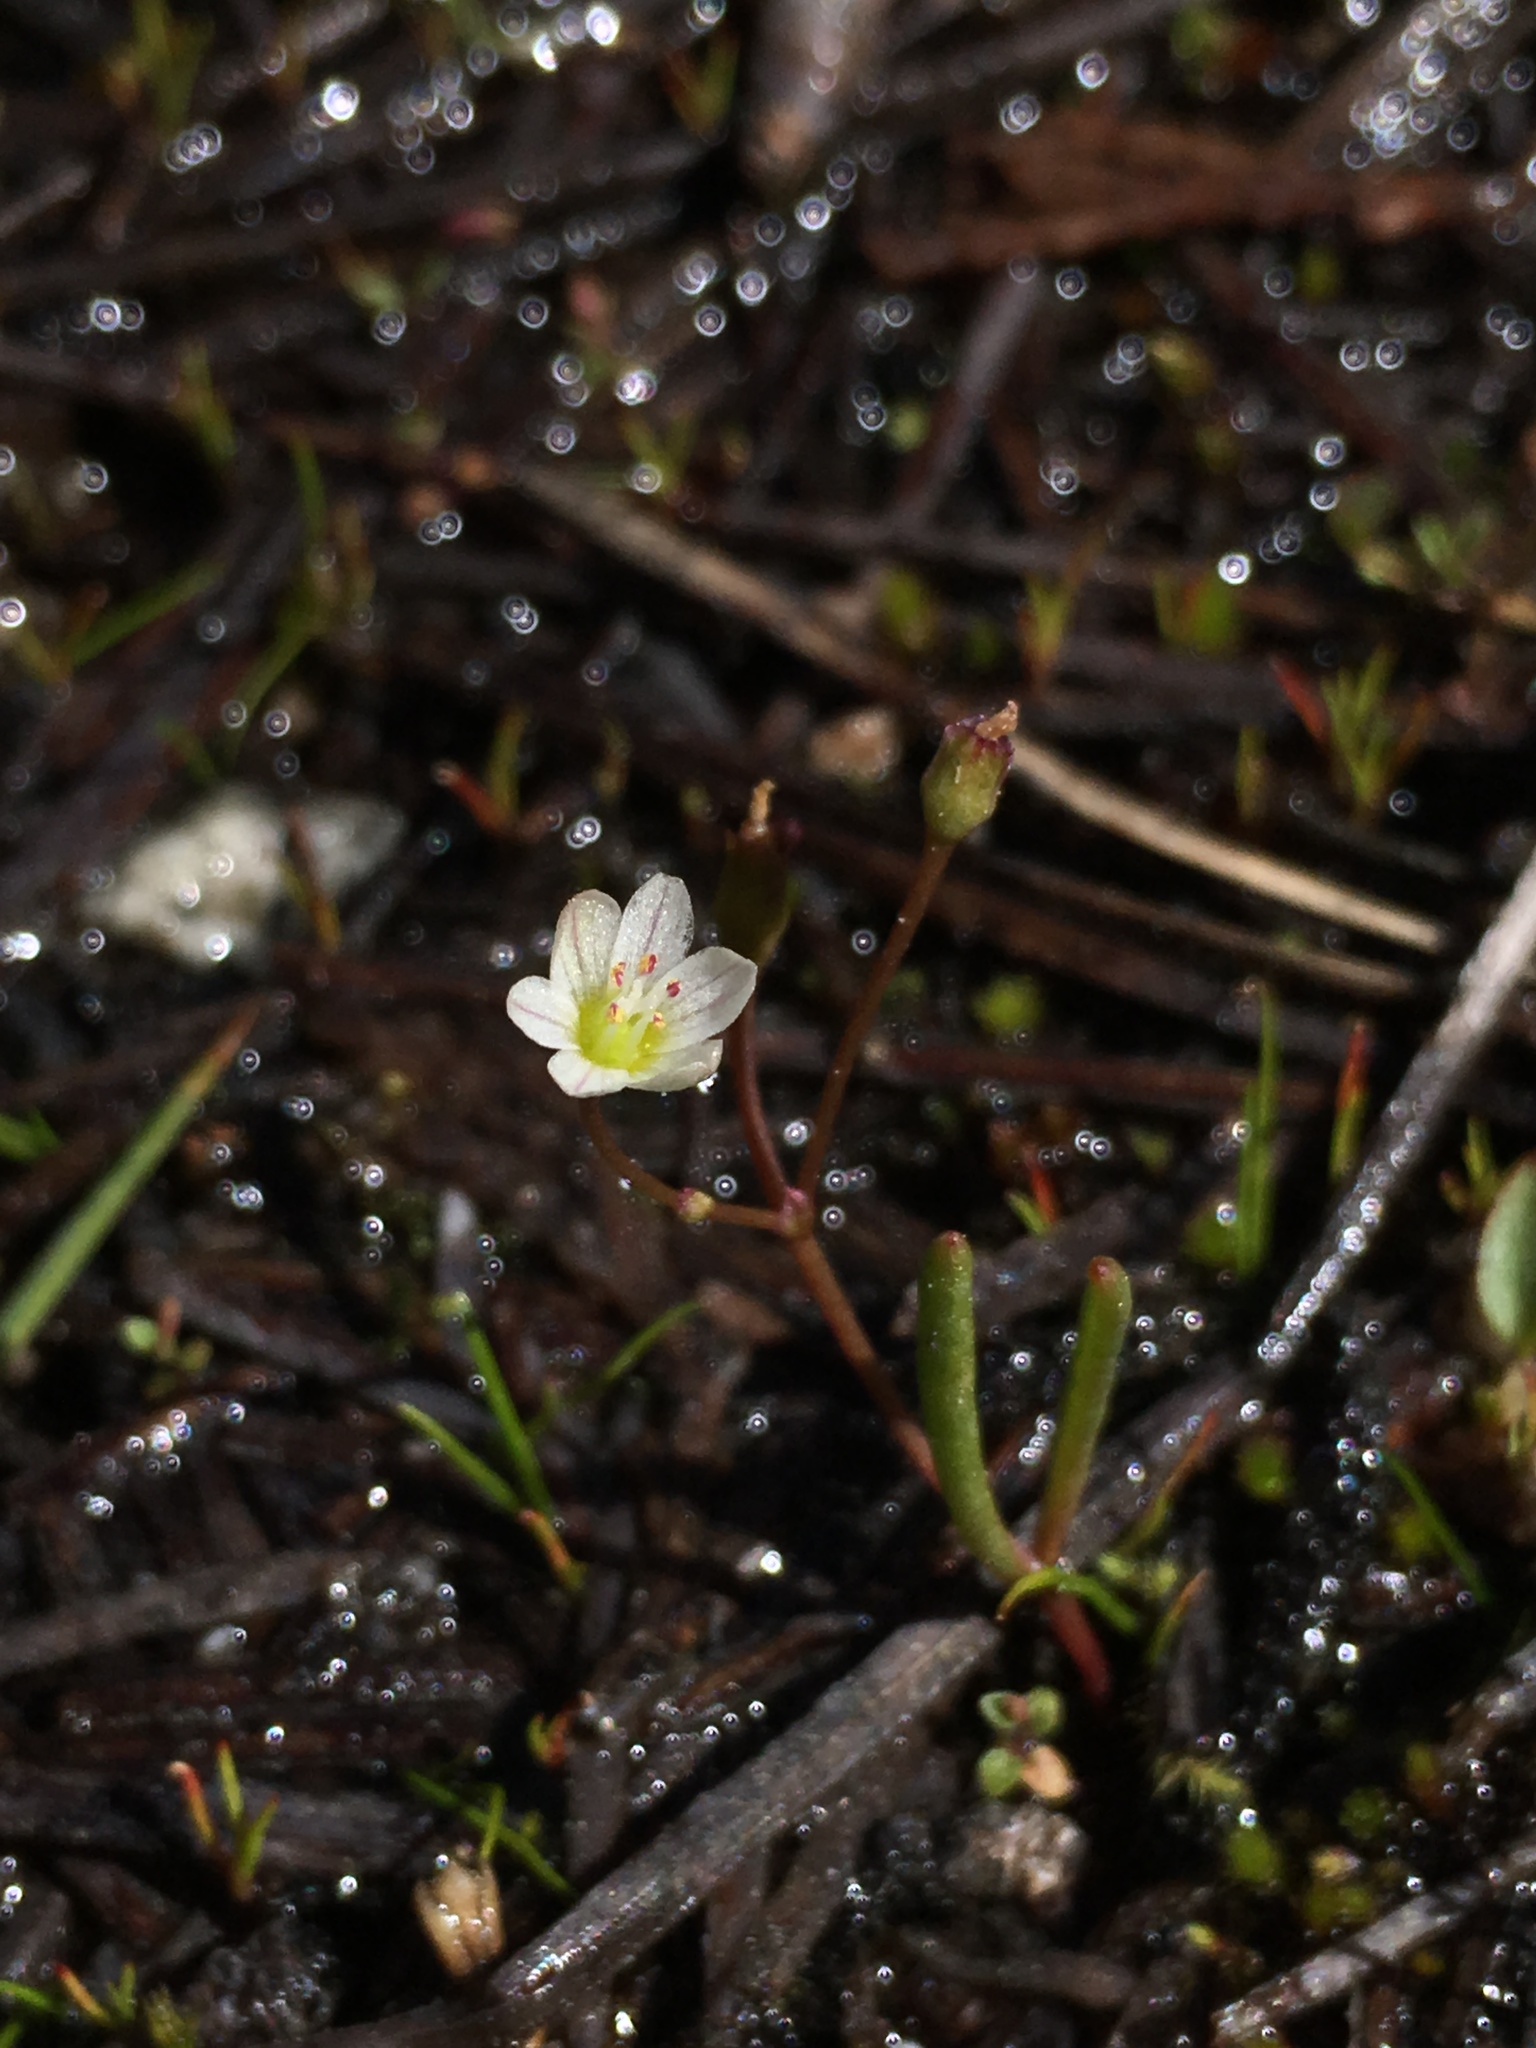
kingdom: Plantae
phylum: Tracheophyta
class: Magnoliopsida
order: Caryophyllales
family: Montiaceae
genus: Lewisia
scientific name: Lewisia triphylla
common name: Three-leaved bitterroot
